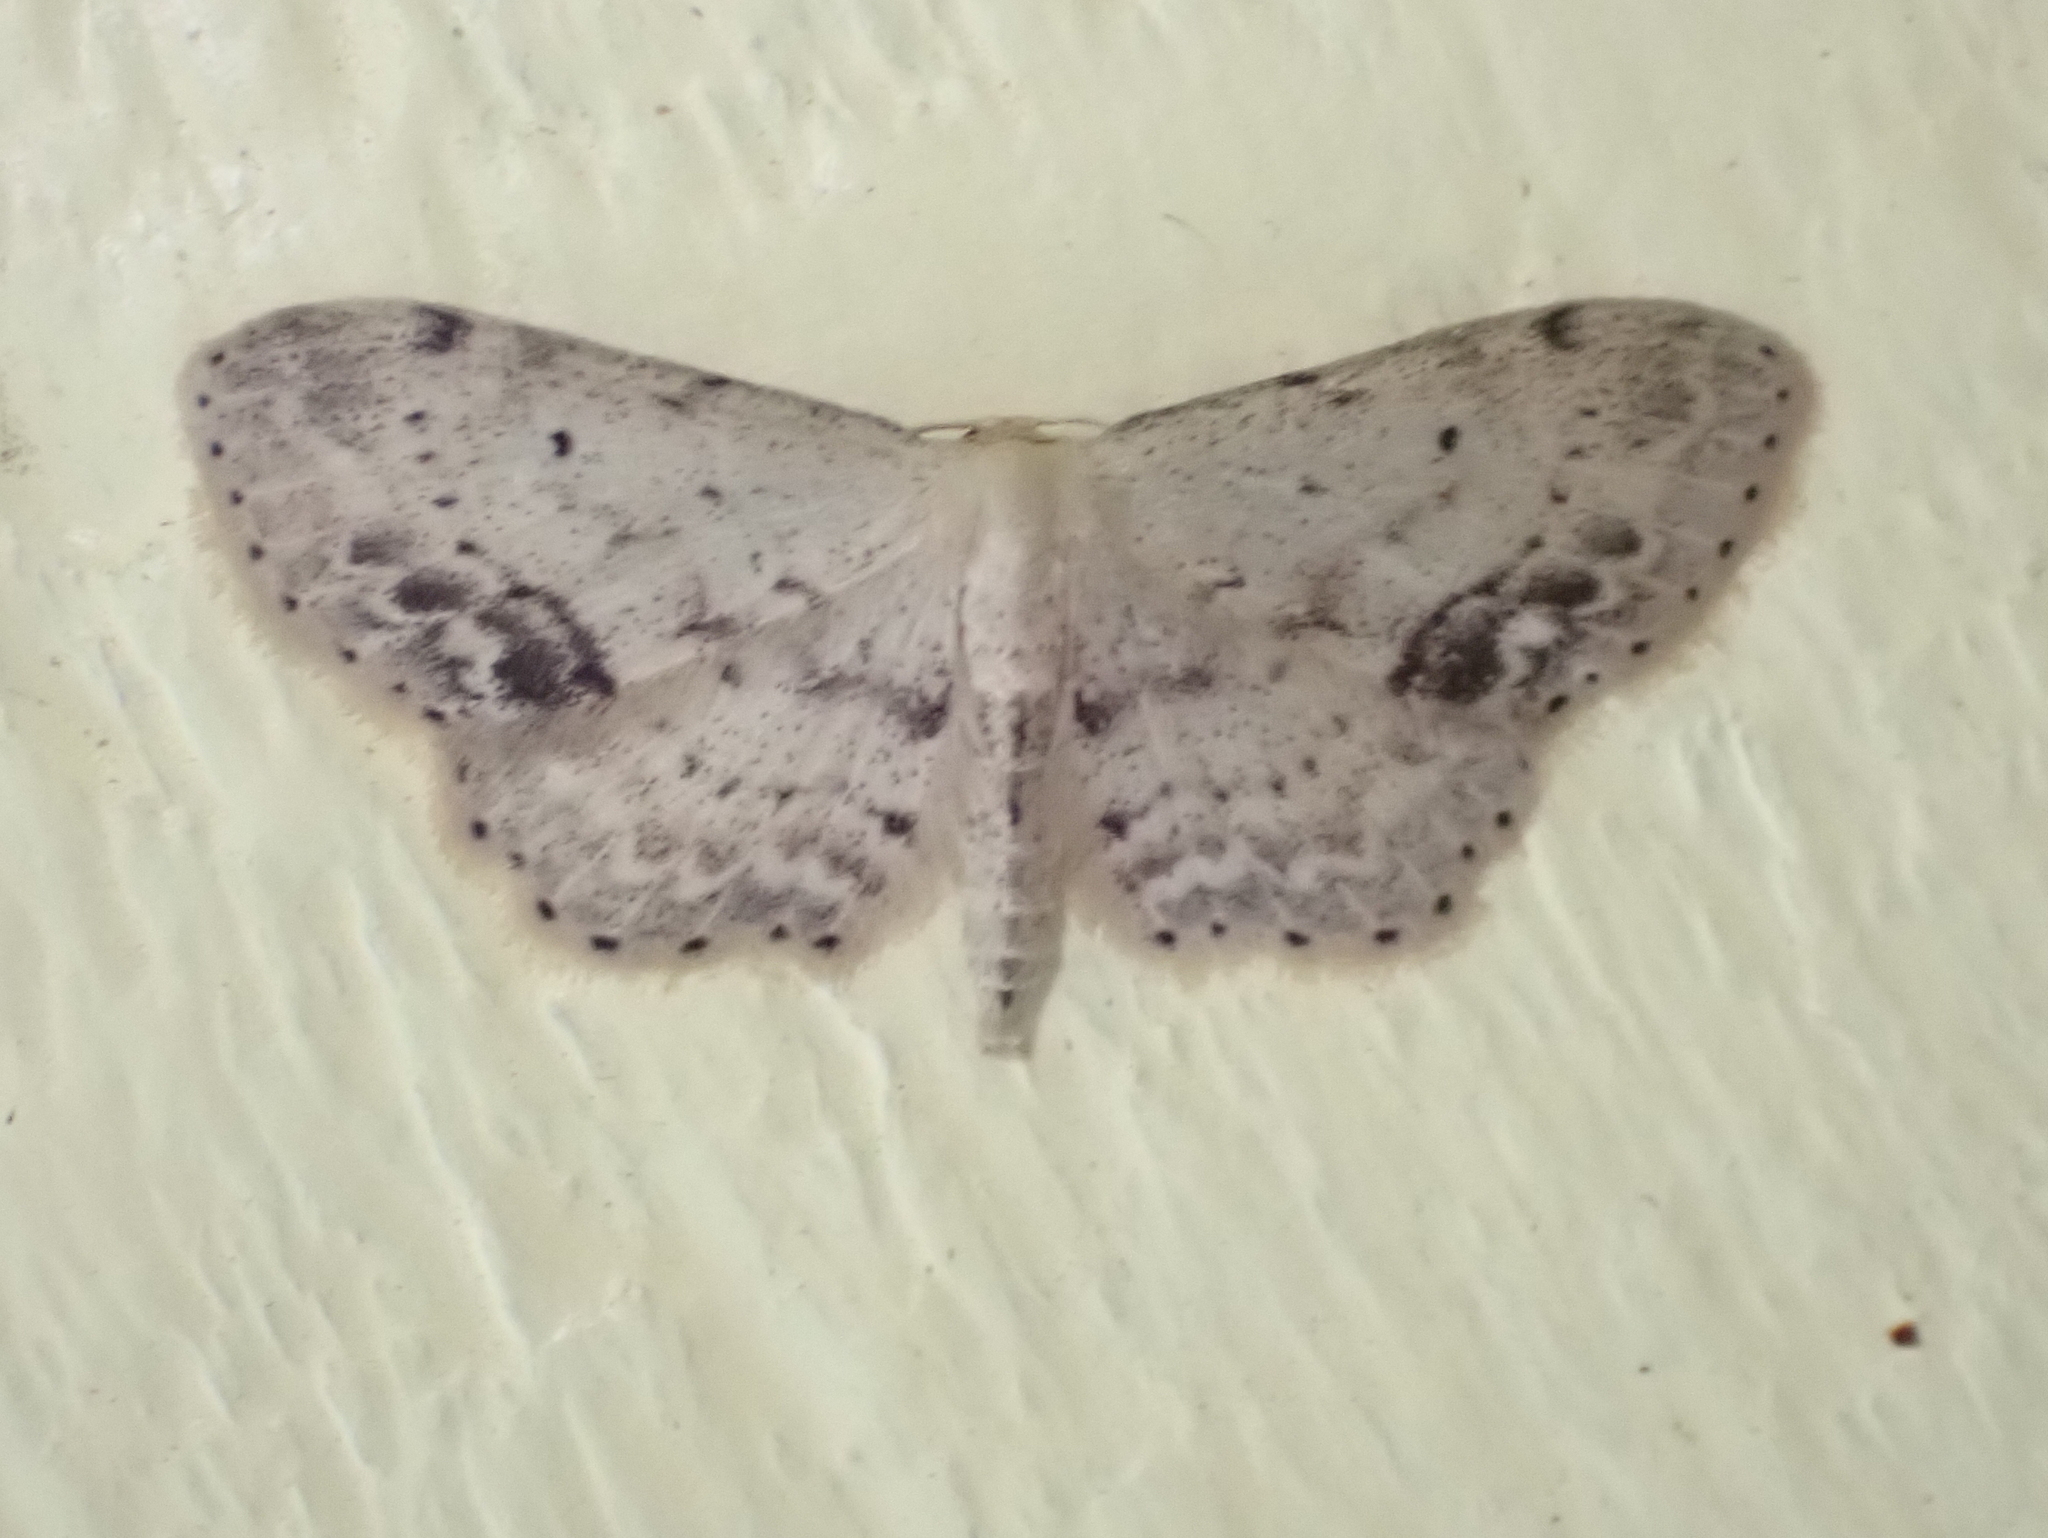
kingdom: Animalia
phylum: Arthropoda
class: Insecta
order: Lepidoptera
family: Geometridae
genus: Idaea
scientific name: Idaea dimidiata
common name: Single-dotted wave
